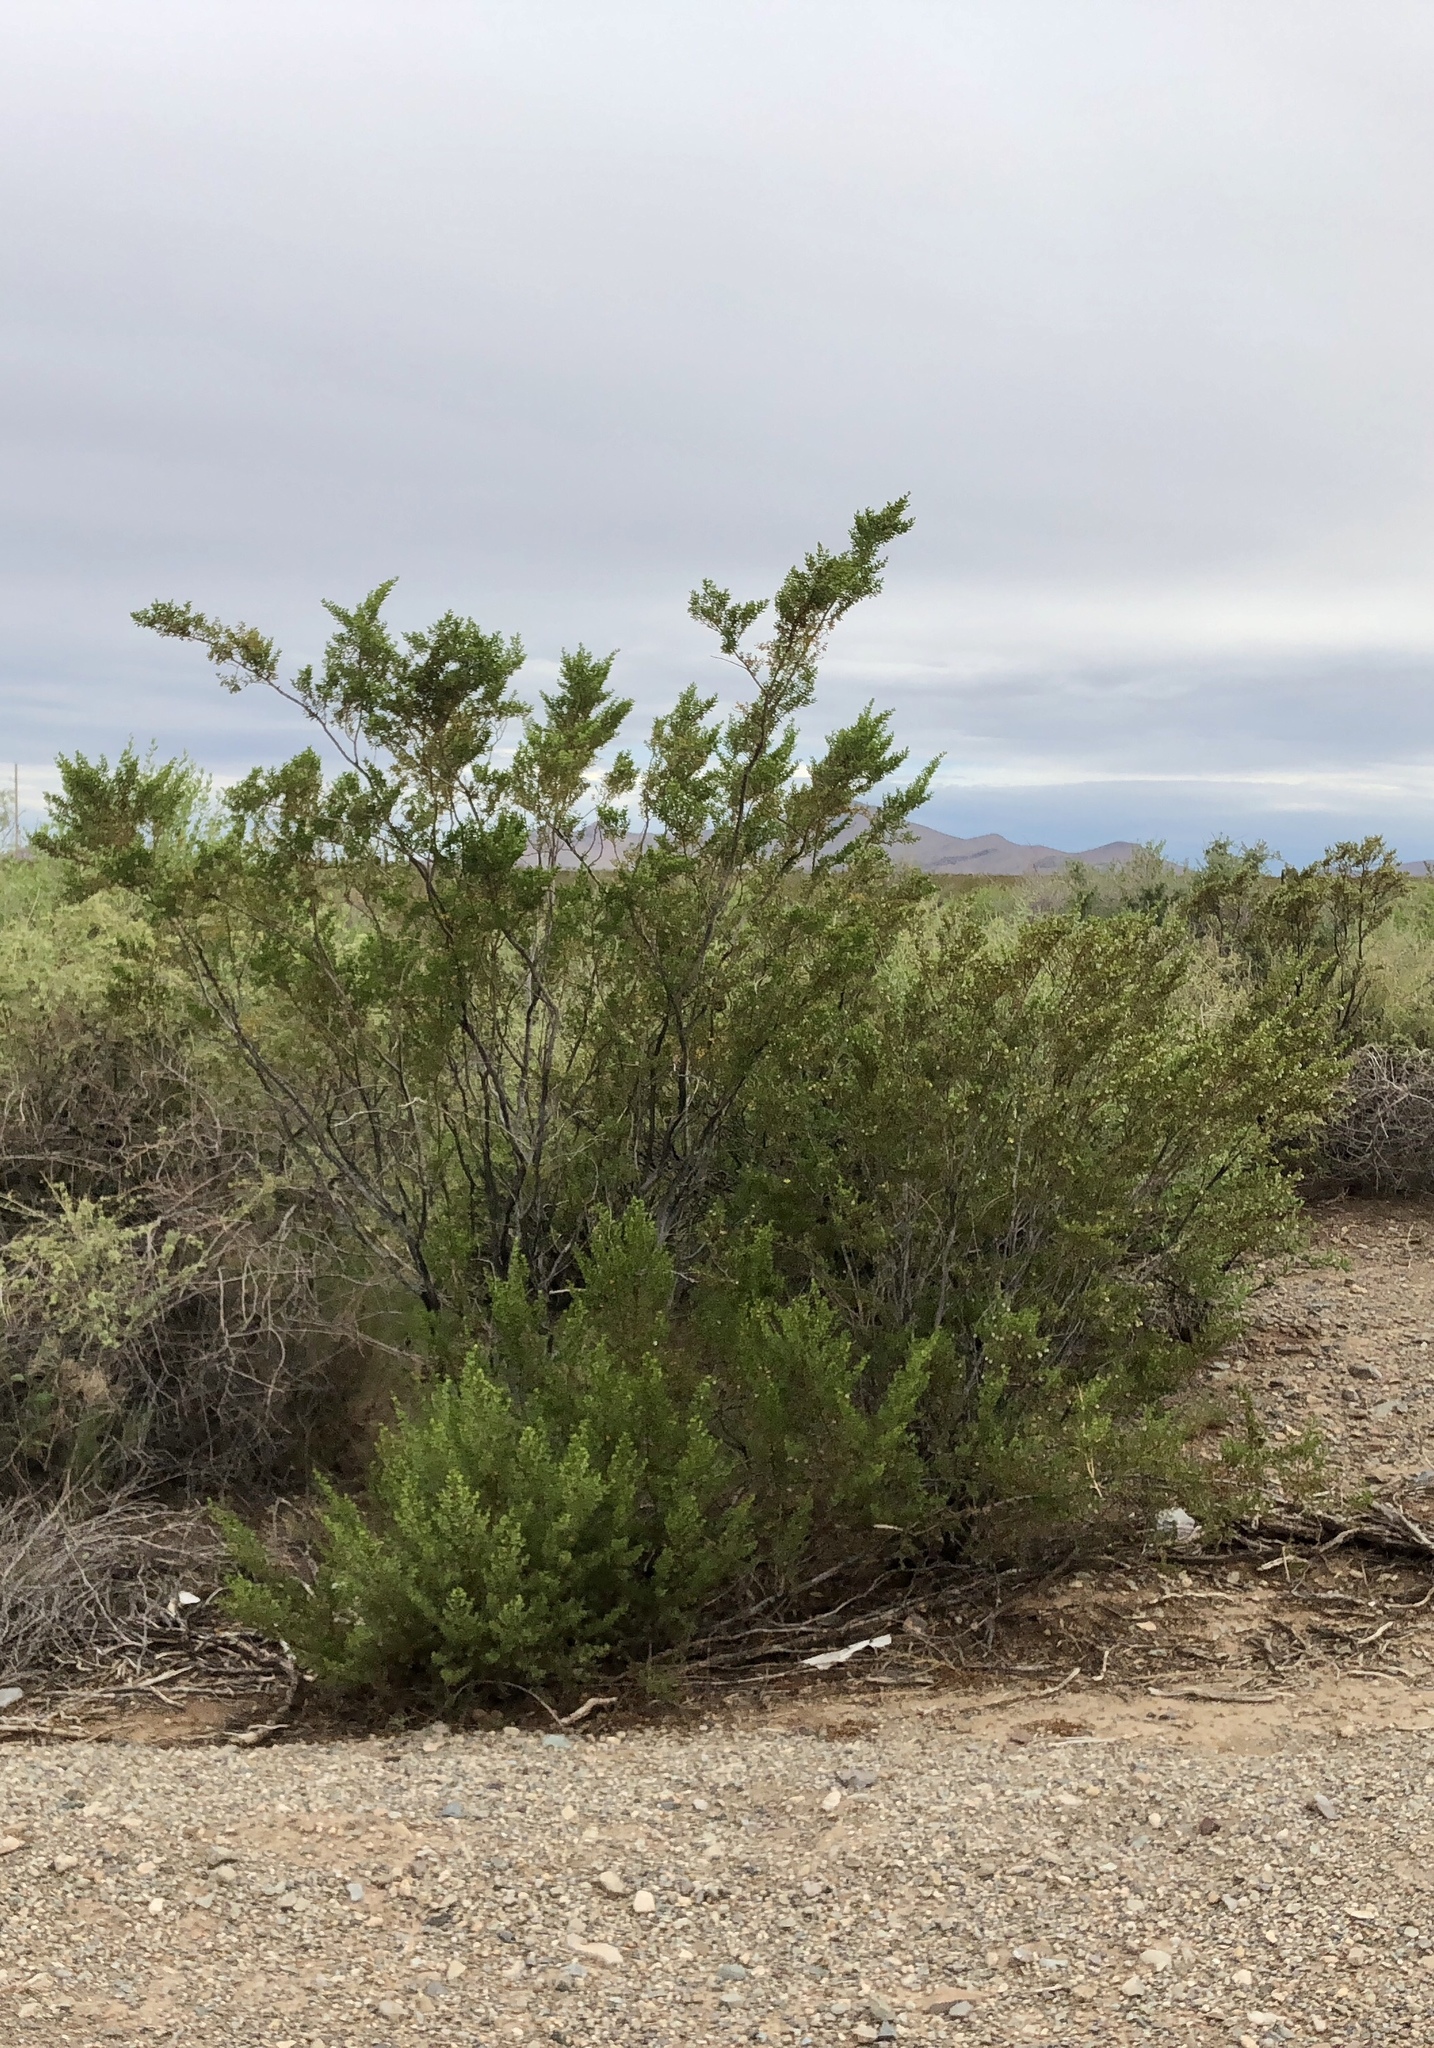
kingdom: Plantae
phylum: Tracheophyta
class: Magnoliopsida
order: Zygophyllales
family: Zygophyllaceae
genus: Larrea
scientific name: Larrea tridentata
